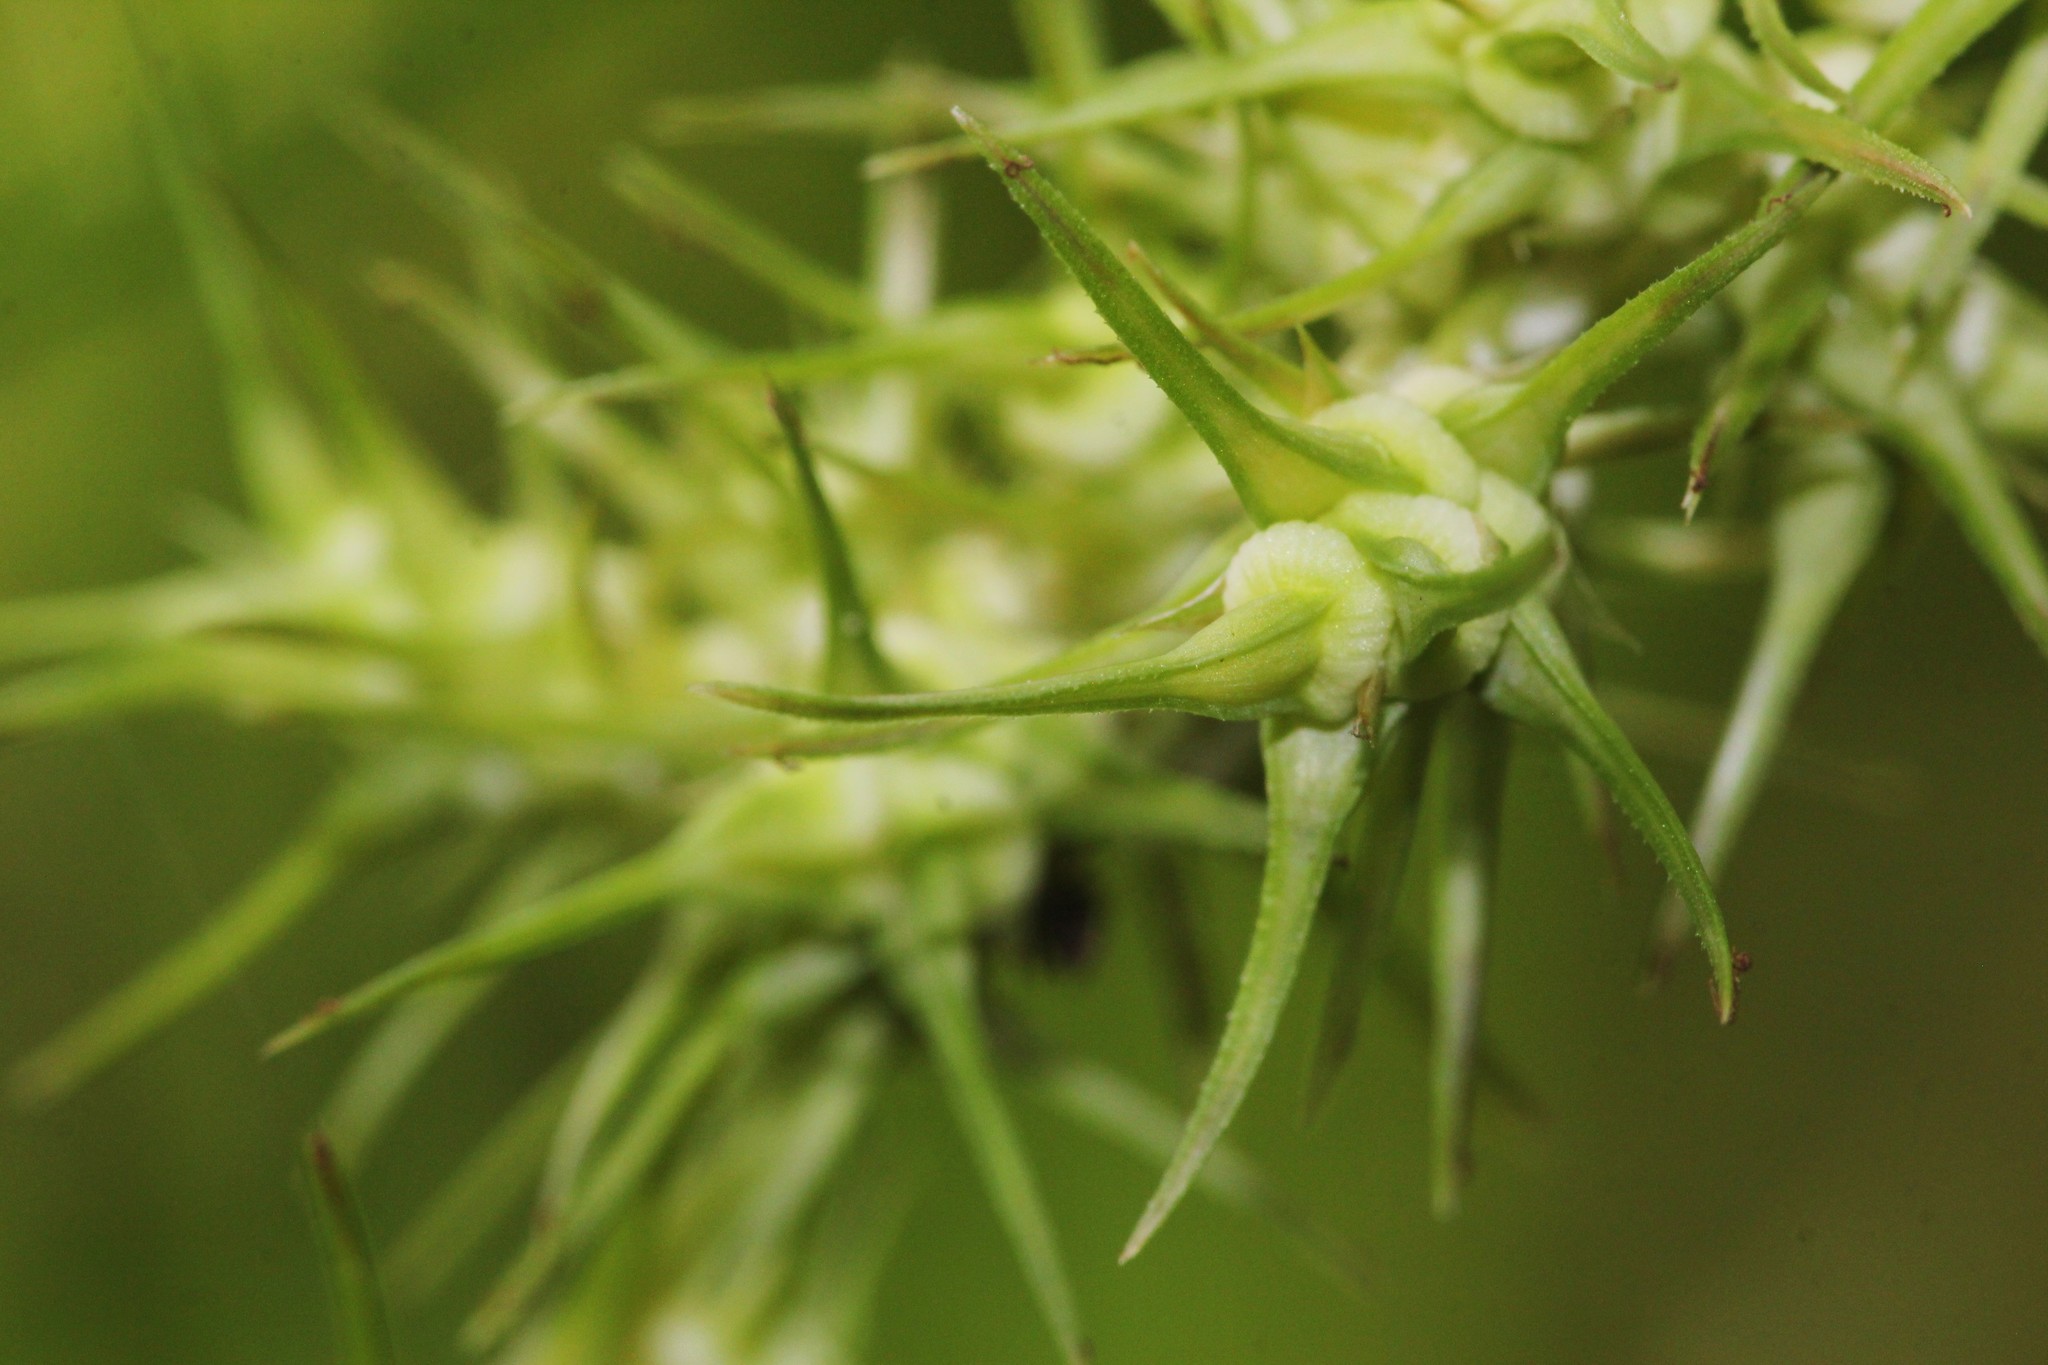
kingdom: Plantae
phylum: Tracheophyta
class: Liliopsida
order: Poales
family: Cyperaceae
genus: Carex
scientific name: Carex crus-corvi
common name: Crow-spur sedge
